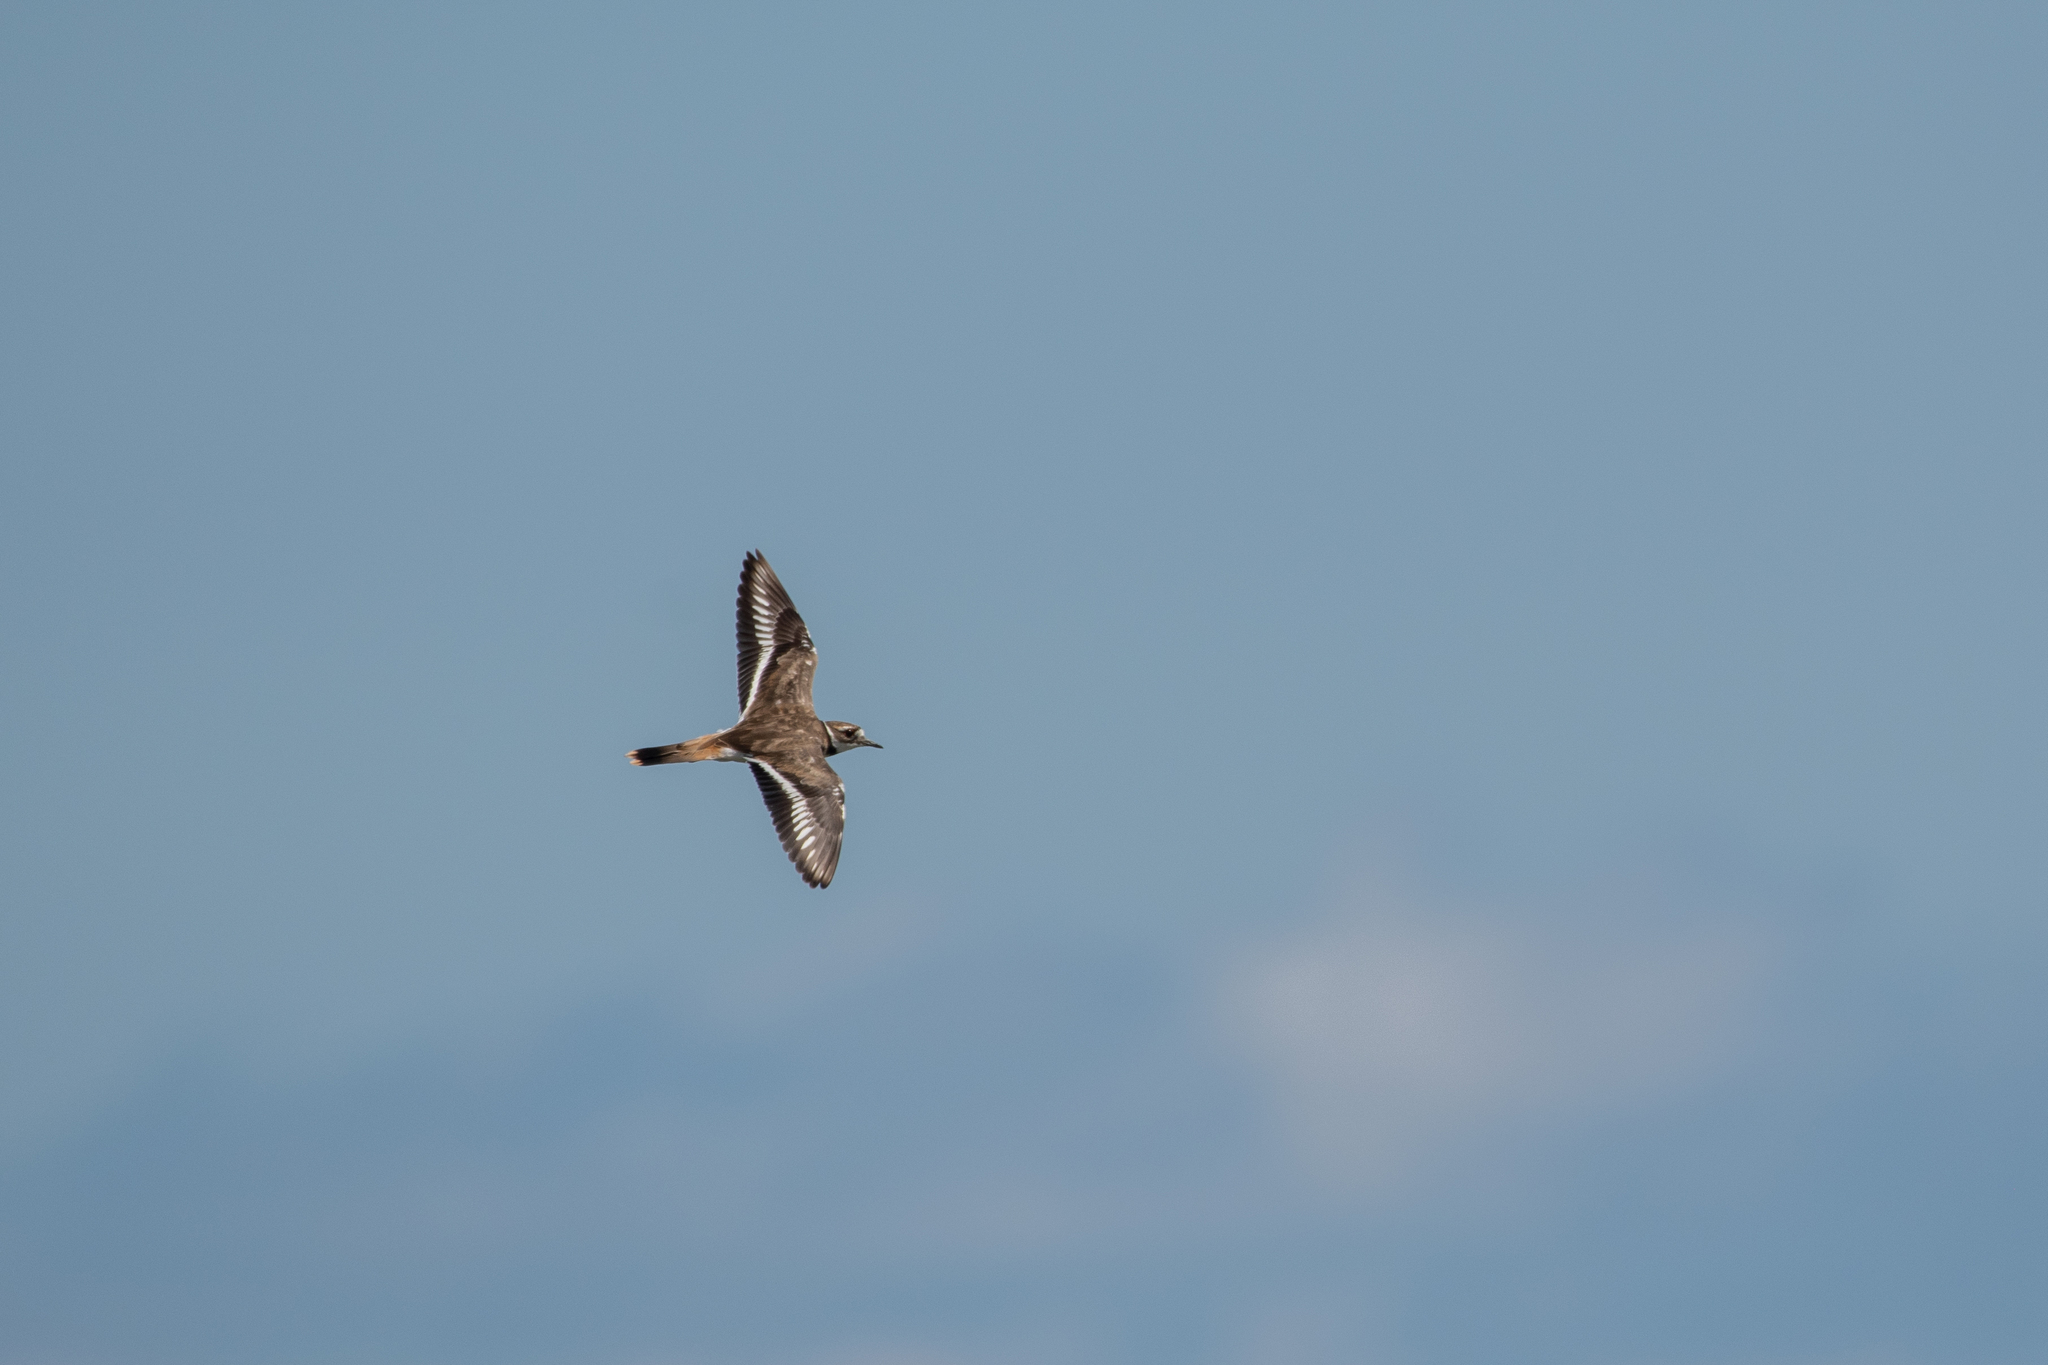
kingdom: Animalia
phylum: Chordata
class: Aves
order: Charadriiformes
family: Charadriidae
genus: Charadrius
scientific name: Charadrius vociferus
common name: Killdeer
